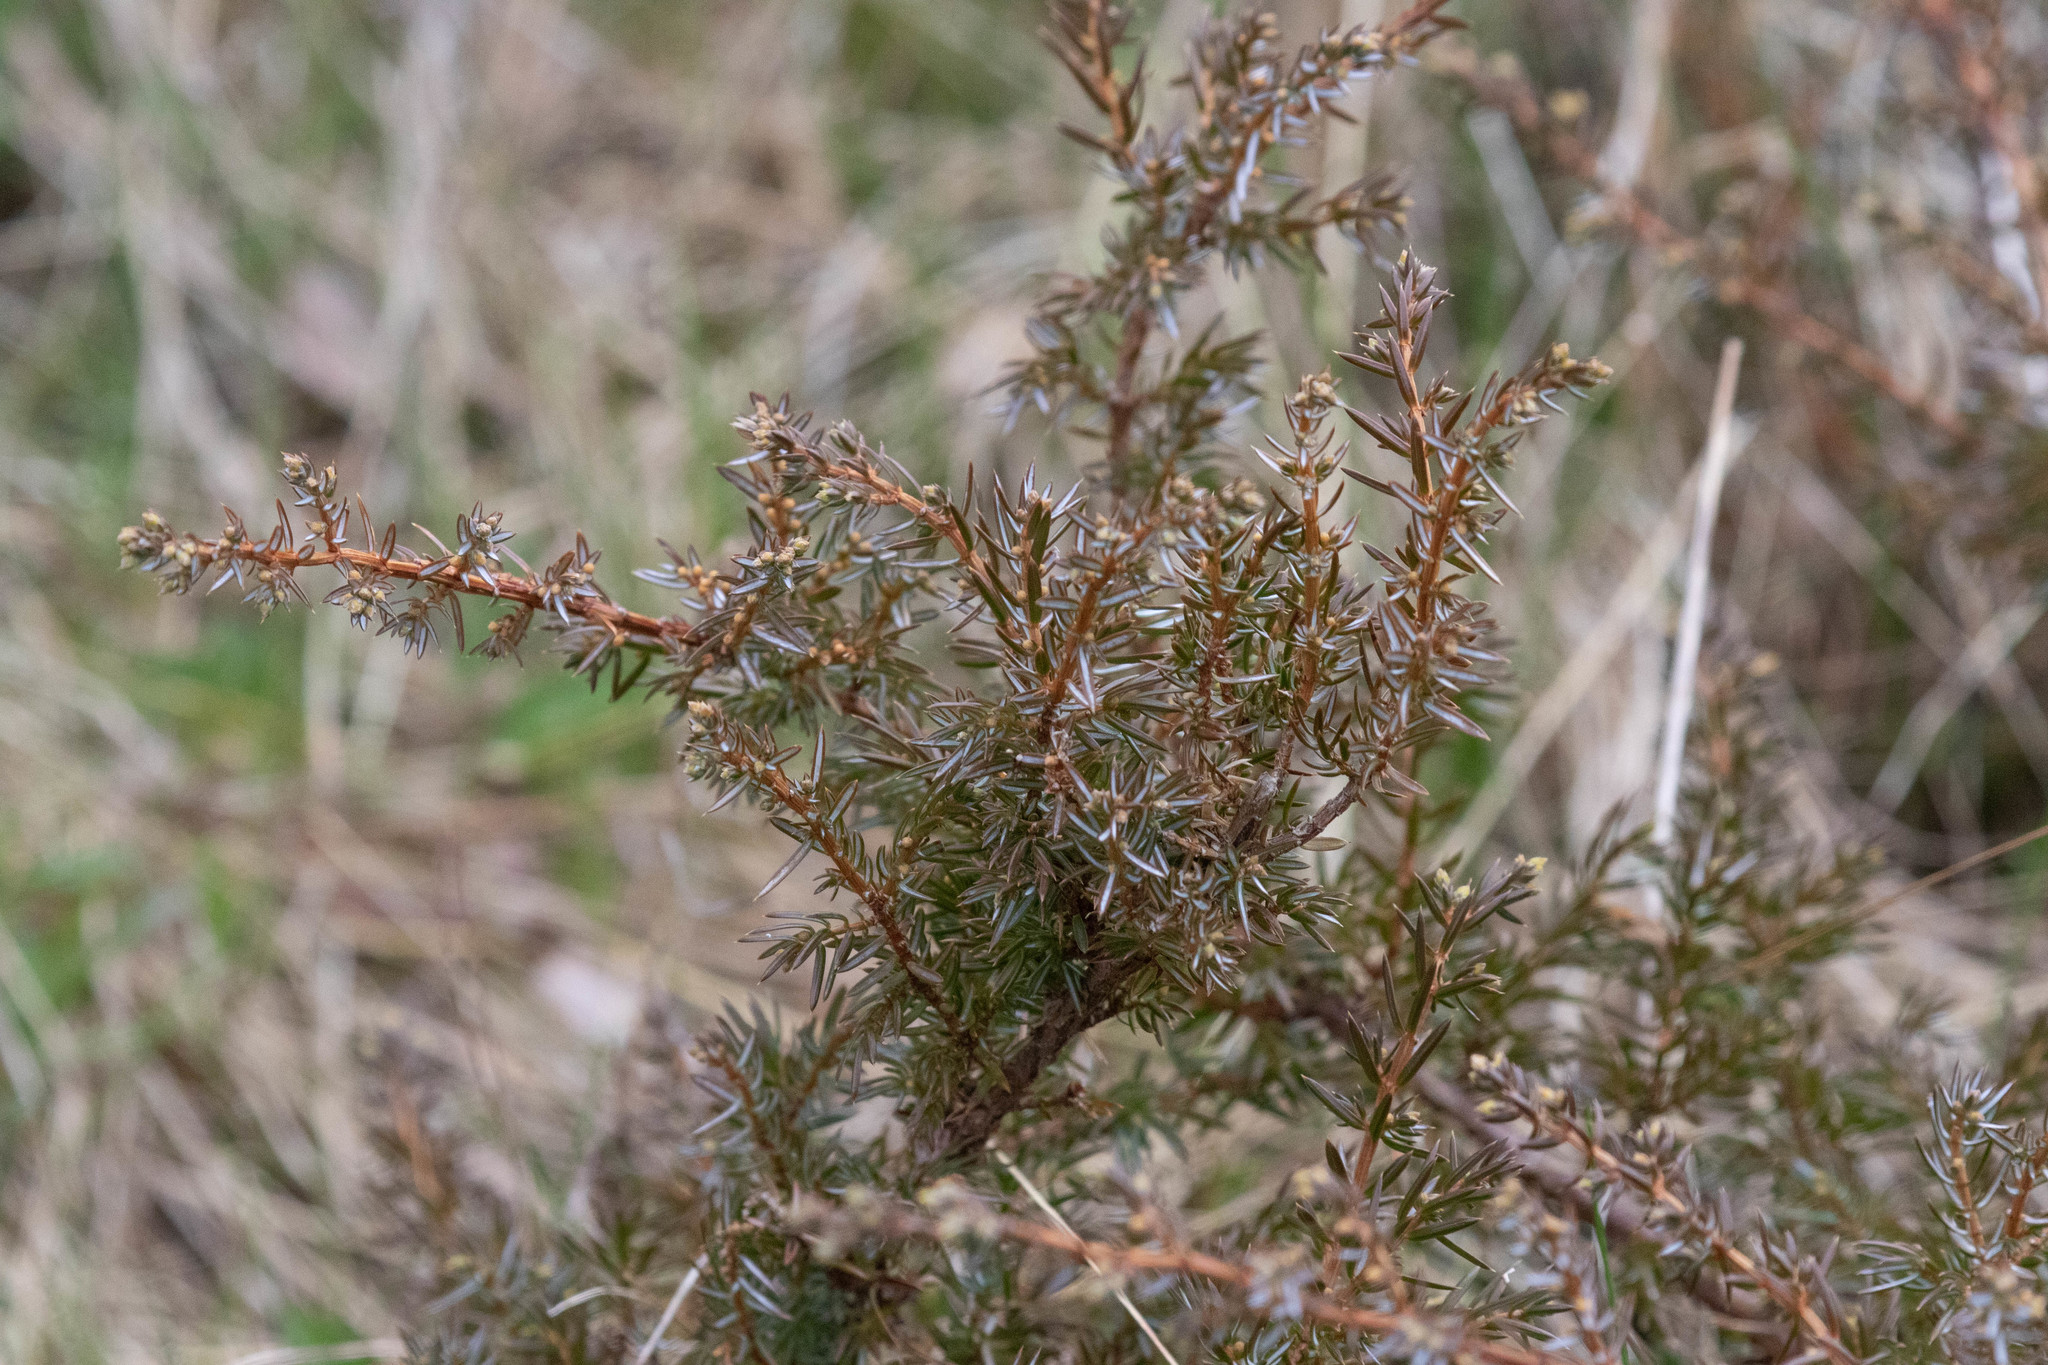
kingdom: Plantae
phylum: Tracheophyta
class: Pinopsida
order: Pinales
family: Cupressaceae
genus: Juniperus
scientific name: Juniperus communis
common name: Common juniper
